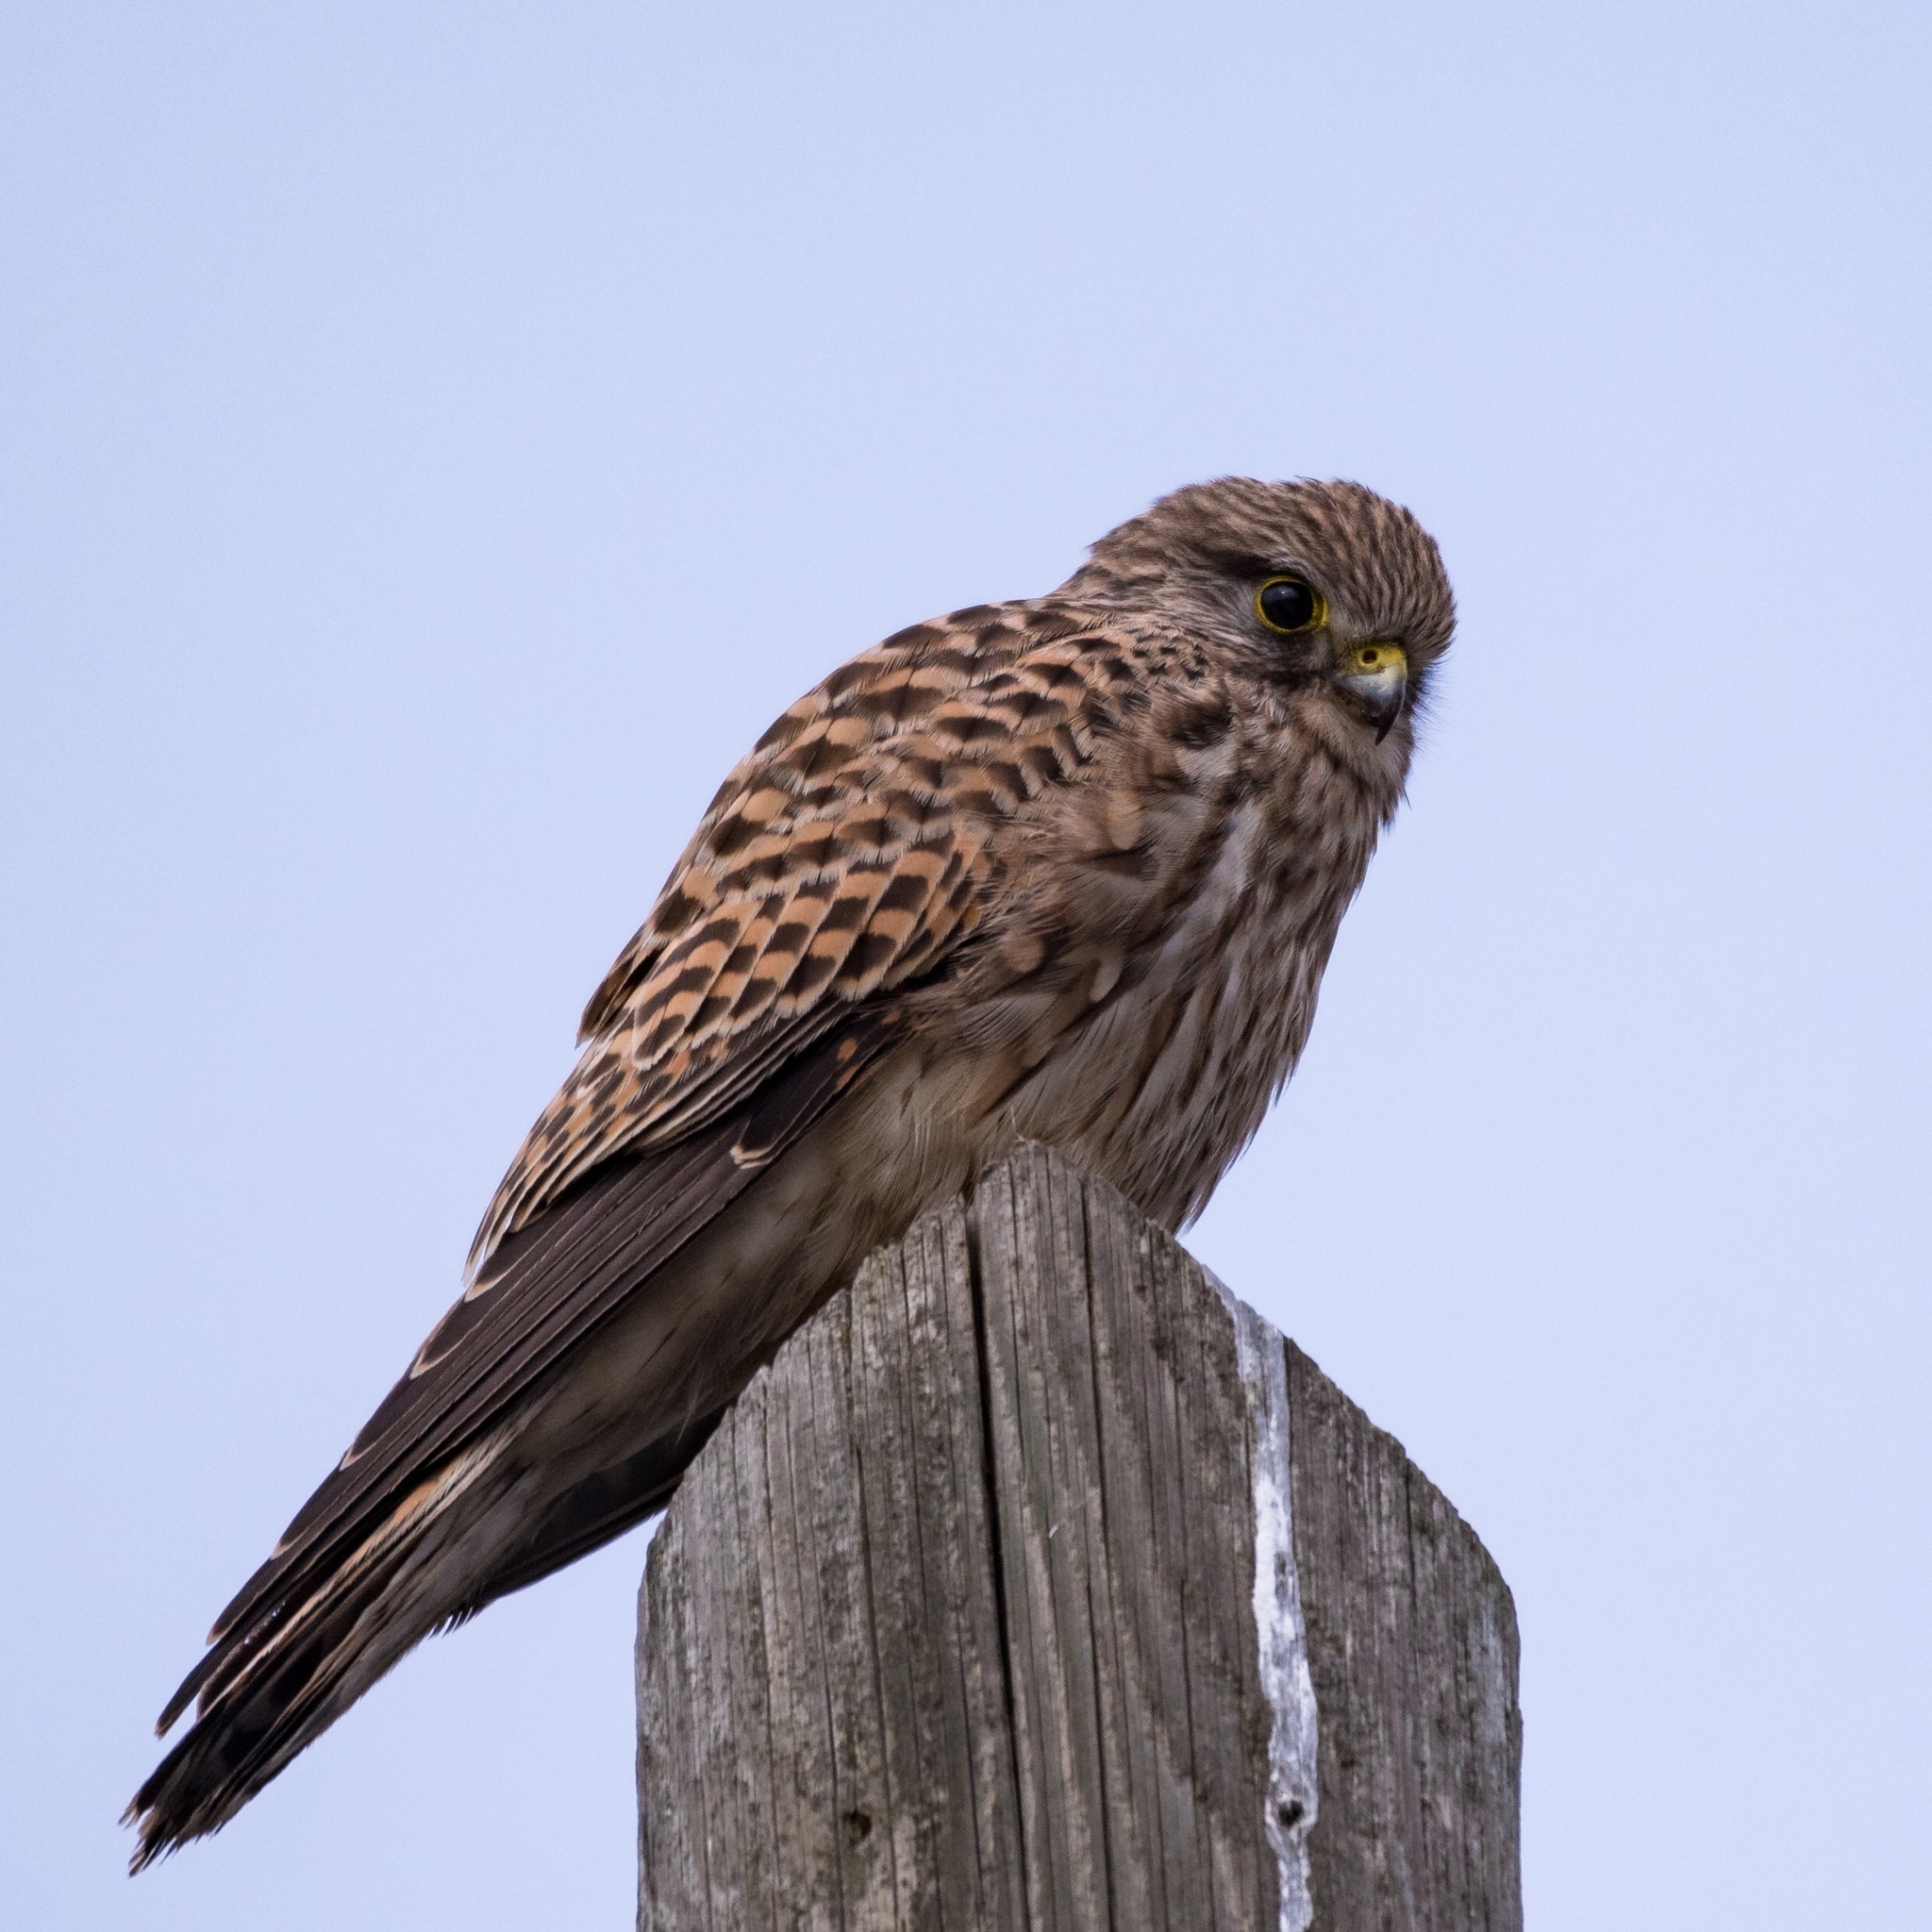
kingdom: Animalia
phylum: Chordata
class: Aves
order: Falconiformes
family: Falconidae
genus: Falco
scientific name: Falco tinnunculus
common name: Common kestrel
